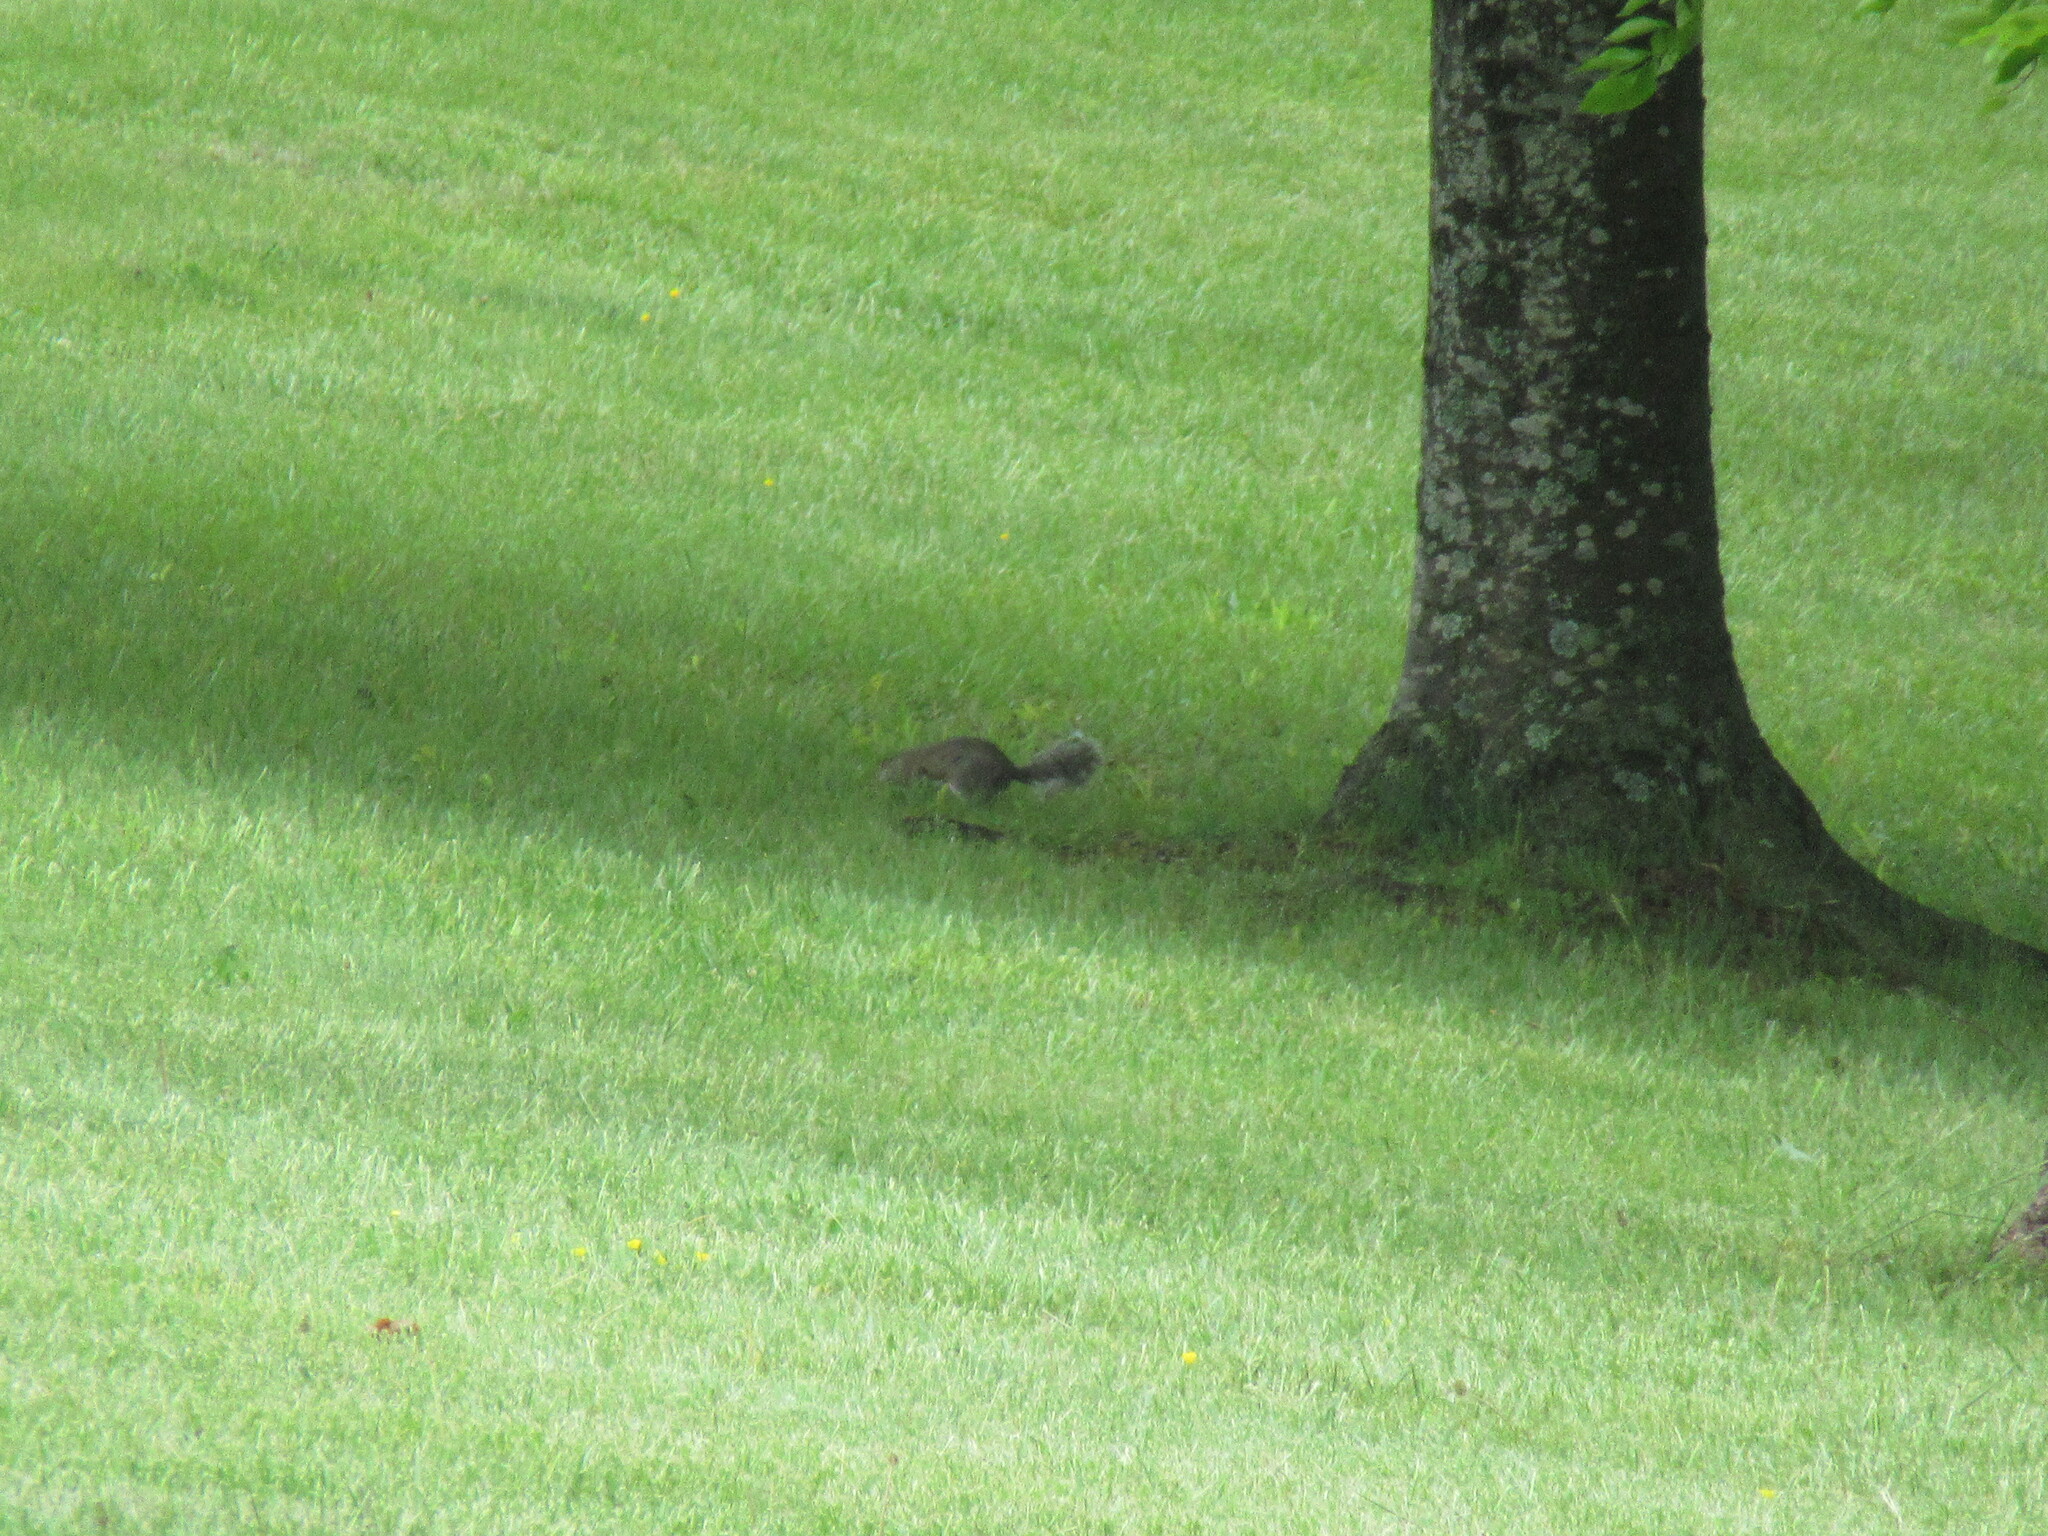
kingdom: Animalia
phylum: Chordata
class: Mammalia
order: Rodentia
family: Sciuridae
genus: Sciurus
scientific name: Sciurus carolinensis
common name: Eastern gray squirrel
